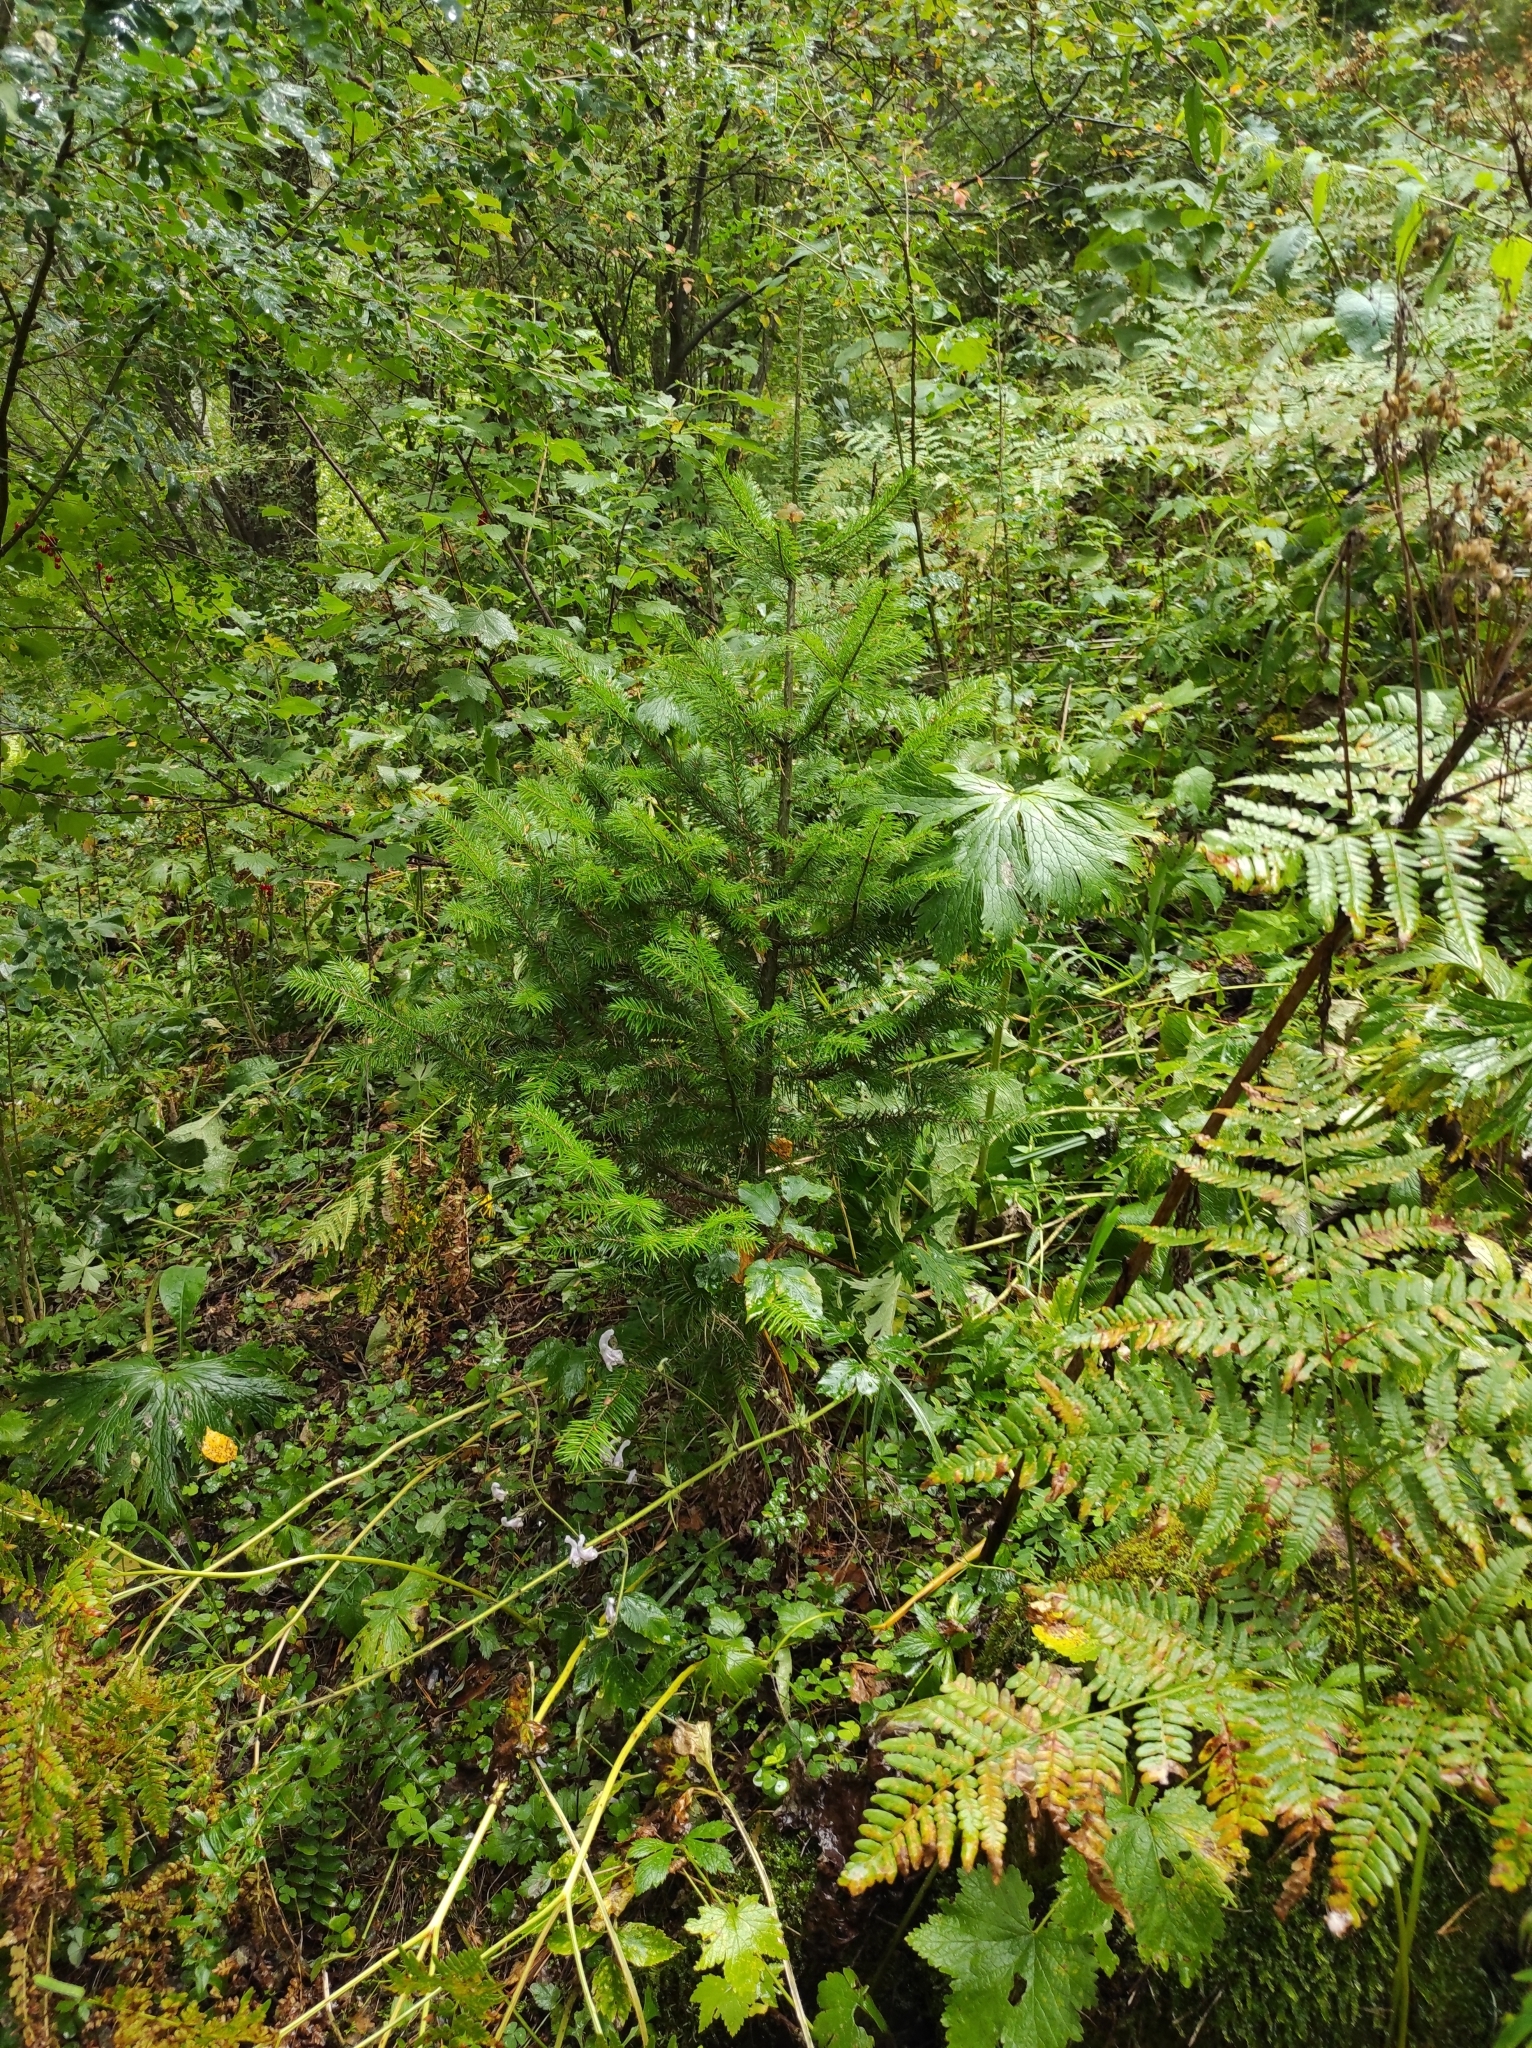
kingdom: Plantae
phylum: Tracheophyta
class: Pinopsida
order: Pinales
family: Pinaceae
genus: Abies
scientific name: Abies sibirica
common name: Siberian fir
